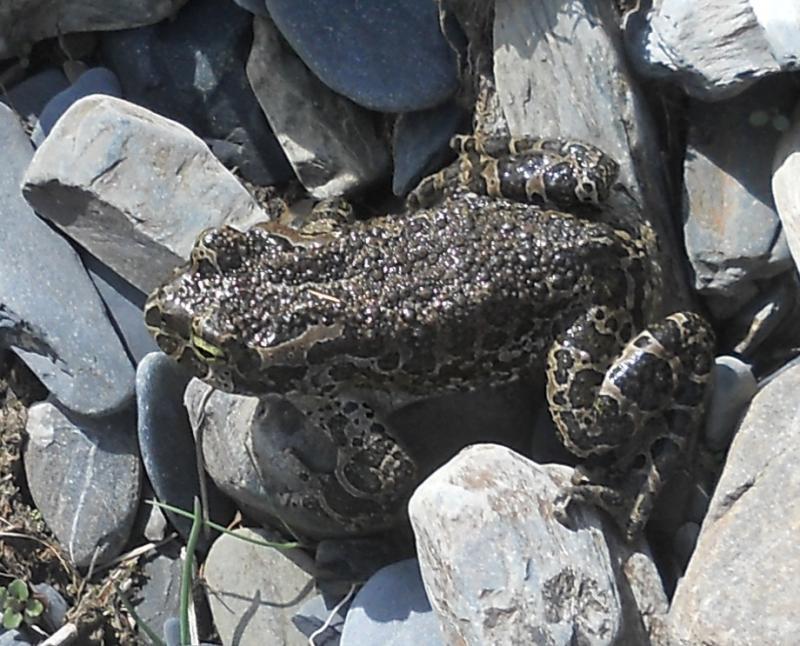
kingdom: Animalia
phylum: Chordata
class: Amphibia
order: Anura
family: Bufonidae
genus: Bufotes
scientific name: Bufotes viridis
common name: European green toad
